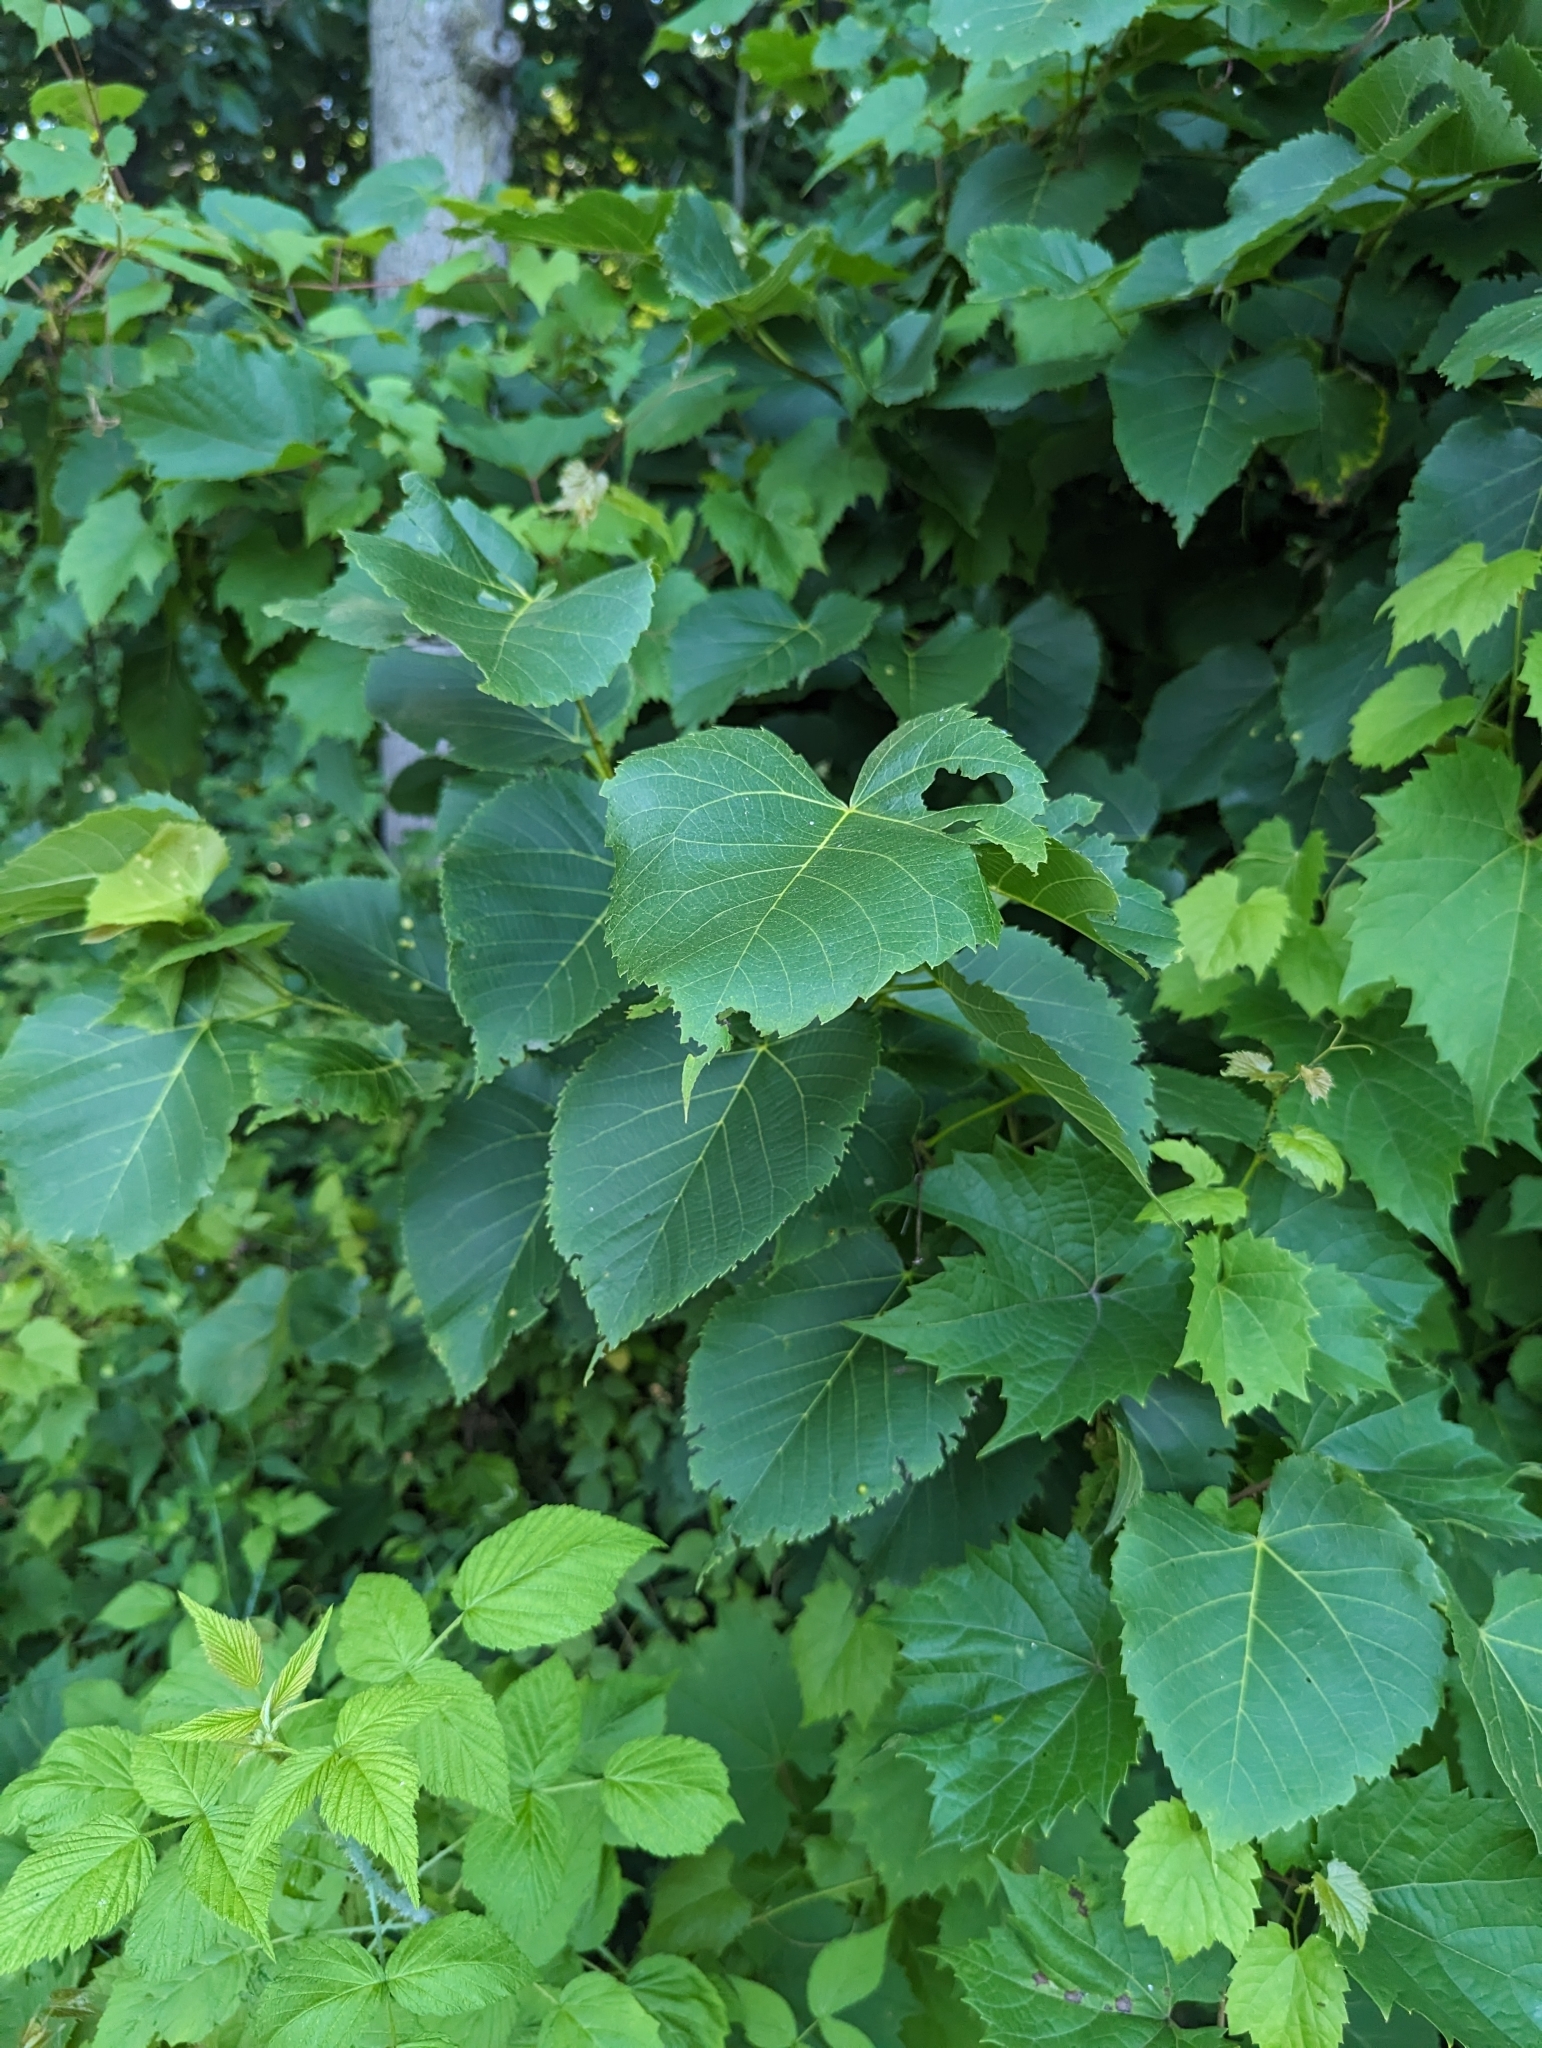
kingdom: Plantae
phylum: Tracheophyta
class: Magnoliopsida
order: Malvales
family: Malvaceae
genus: Tilia
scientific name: Tilia americana
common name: Basswood
